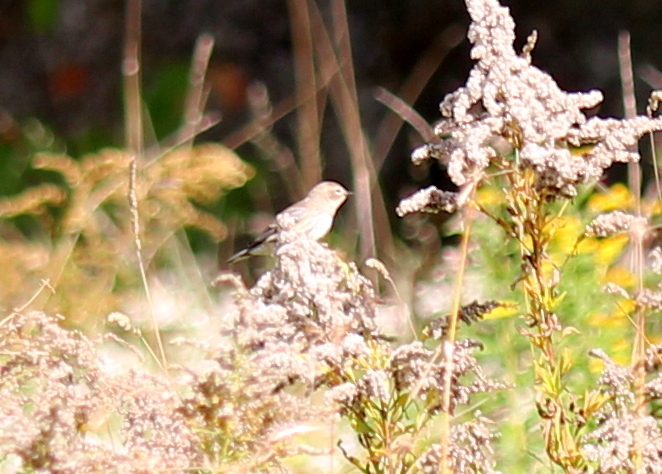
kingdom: Animalia
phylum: Chordata
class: Aves
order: Passeriformes
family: Parulidae
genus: Setophaga
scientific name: Setophaga coronata
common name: Myrtle warbler
